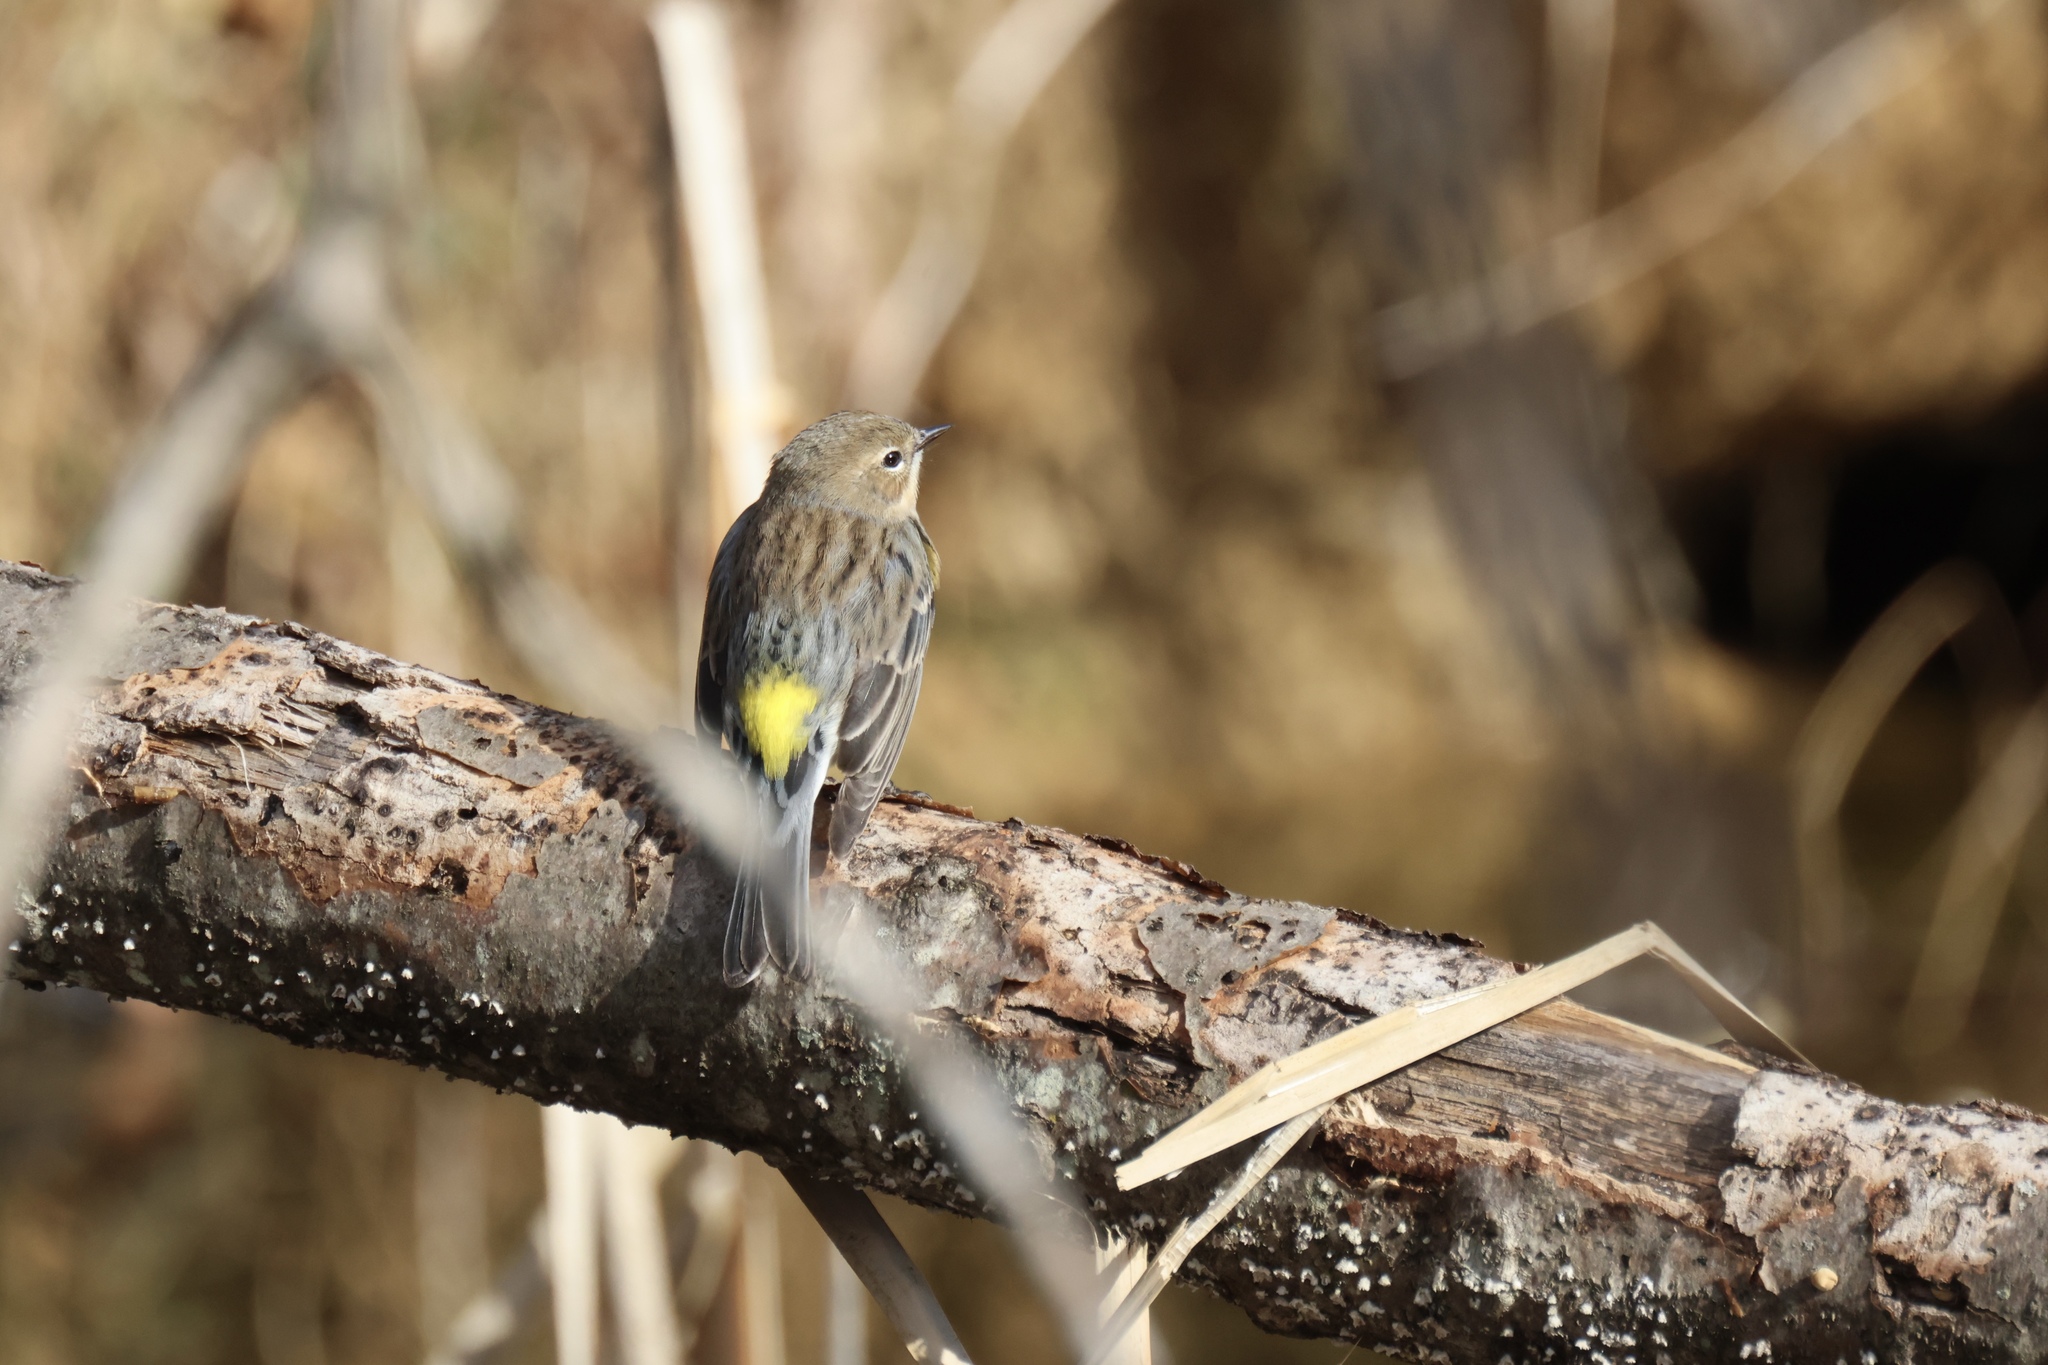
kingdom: Animalia
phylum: Chordata
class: Aves
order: Passeriformes
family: Parulidae
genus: Setophaga
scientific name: Setophaga coronata
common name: Myrtle warbler
